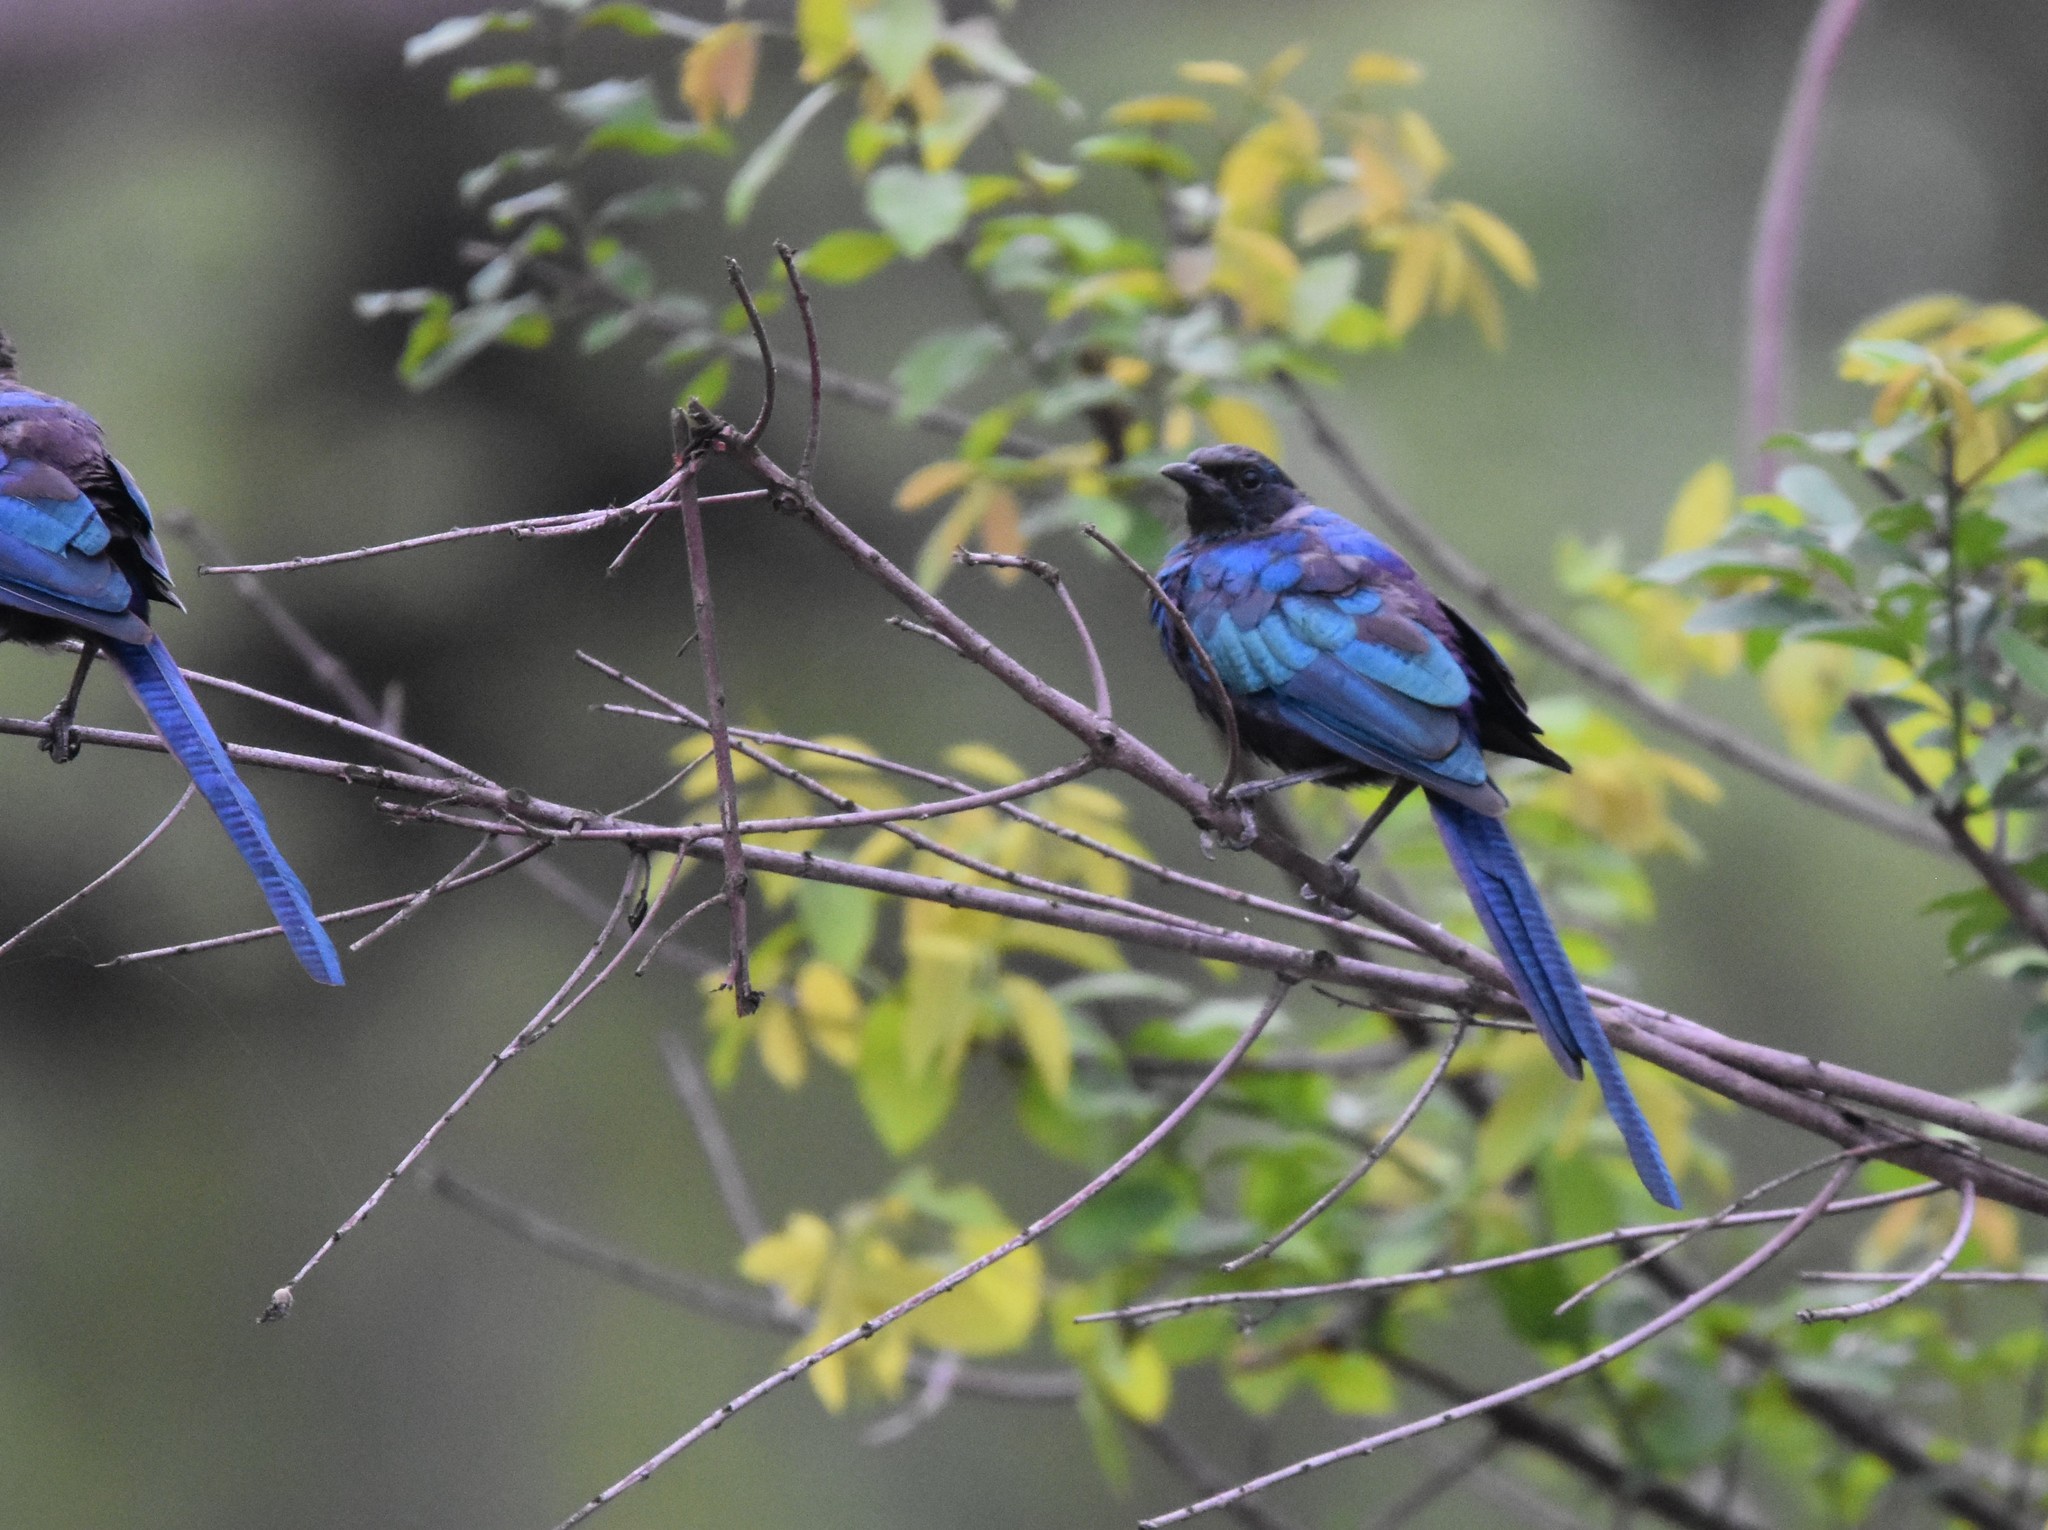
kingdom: Animalia
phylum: Chordata
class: Aves
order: Passeriformes
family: Sturnidae
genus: Lamprotornis
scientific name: Lamprotornis mevesii
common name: Meves's starling
